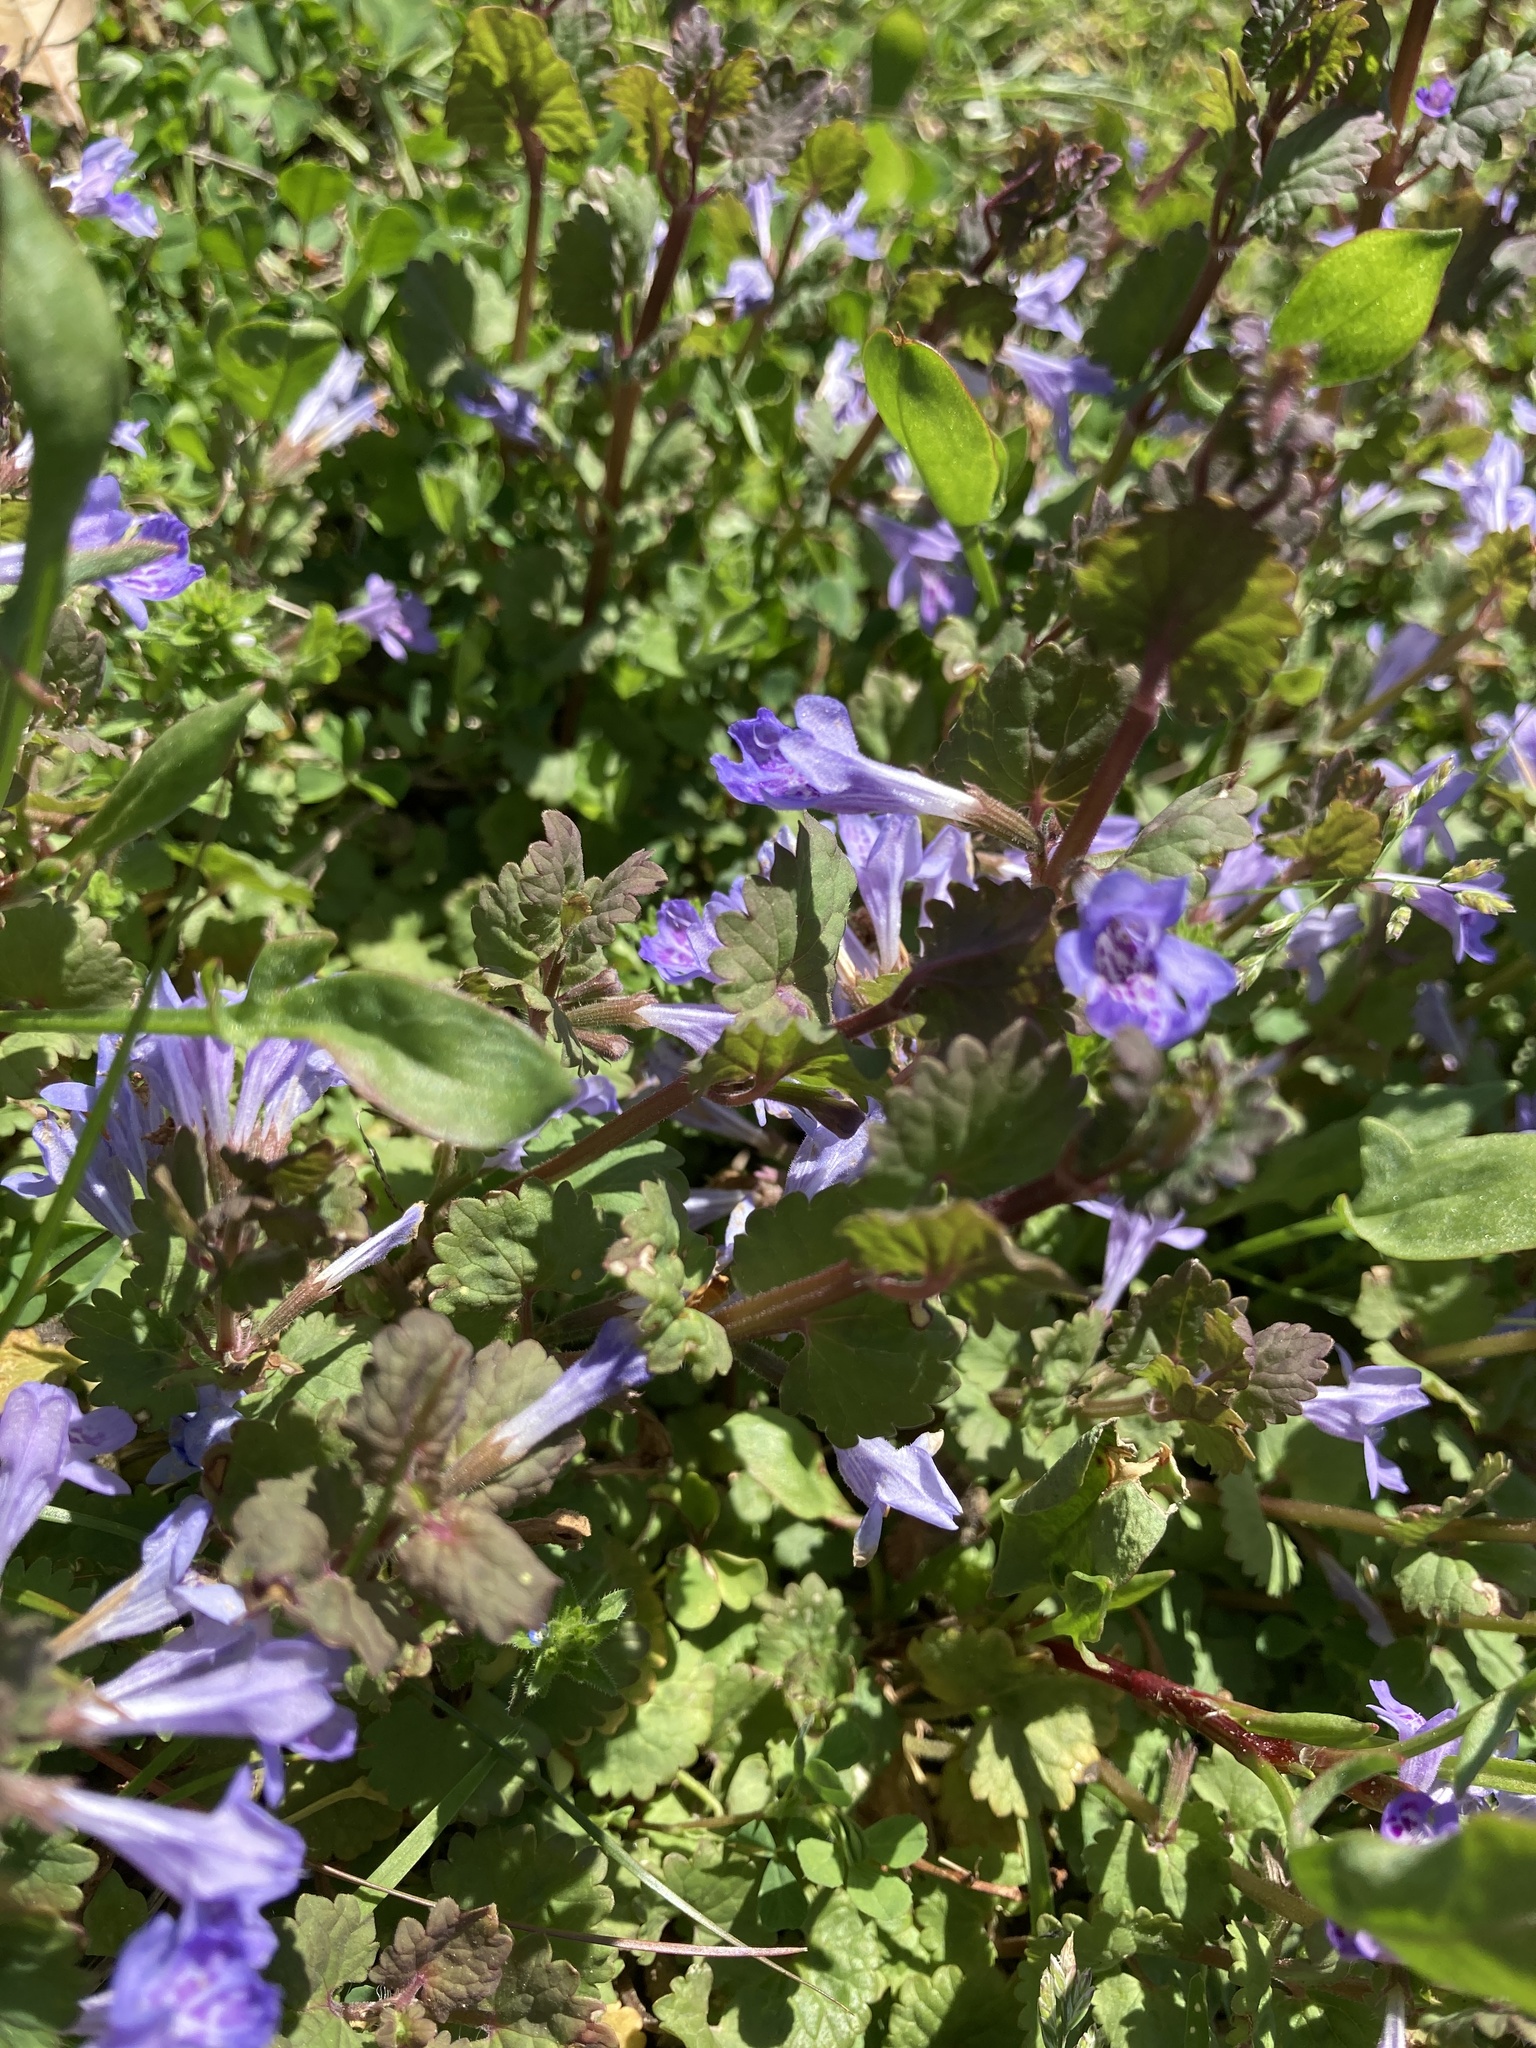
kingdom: Plantae
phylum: Tracheophyta
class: Magnoliopsida
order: Lamiales
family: Lamiaceae
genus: Glechoma
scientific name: Glechoma hederacea
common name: Ground ivy
